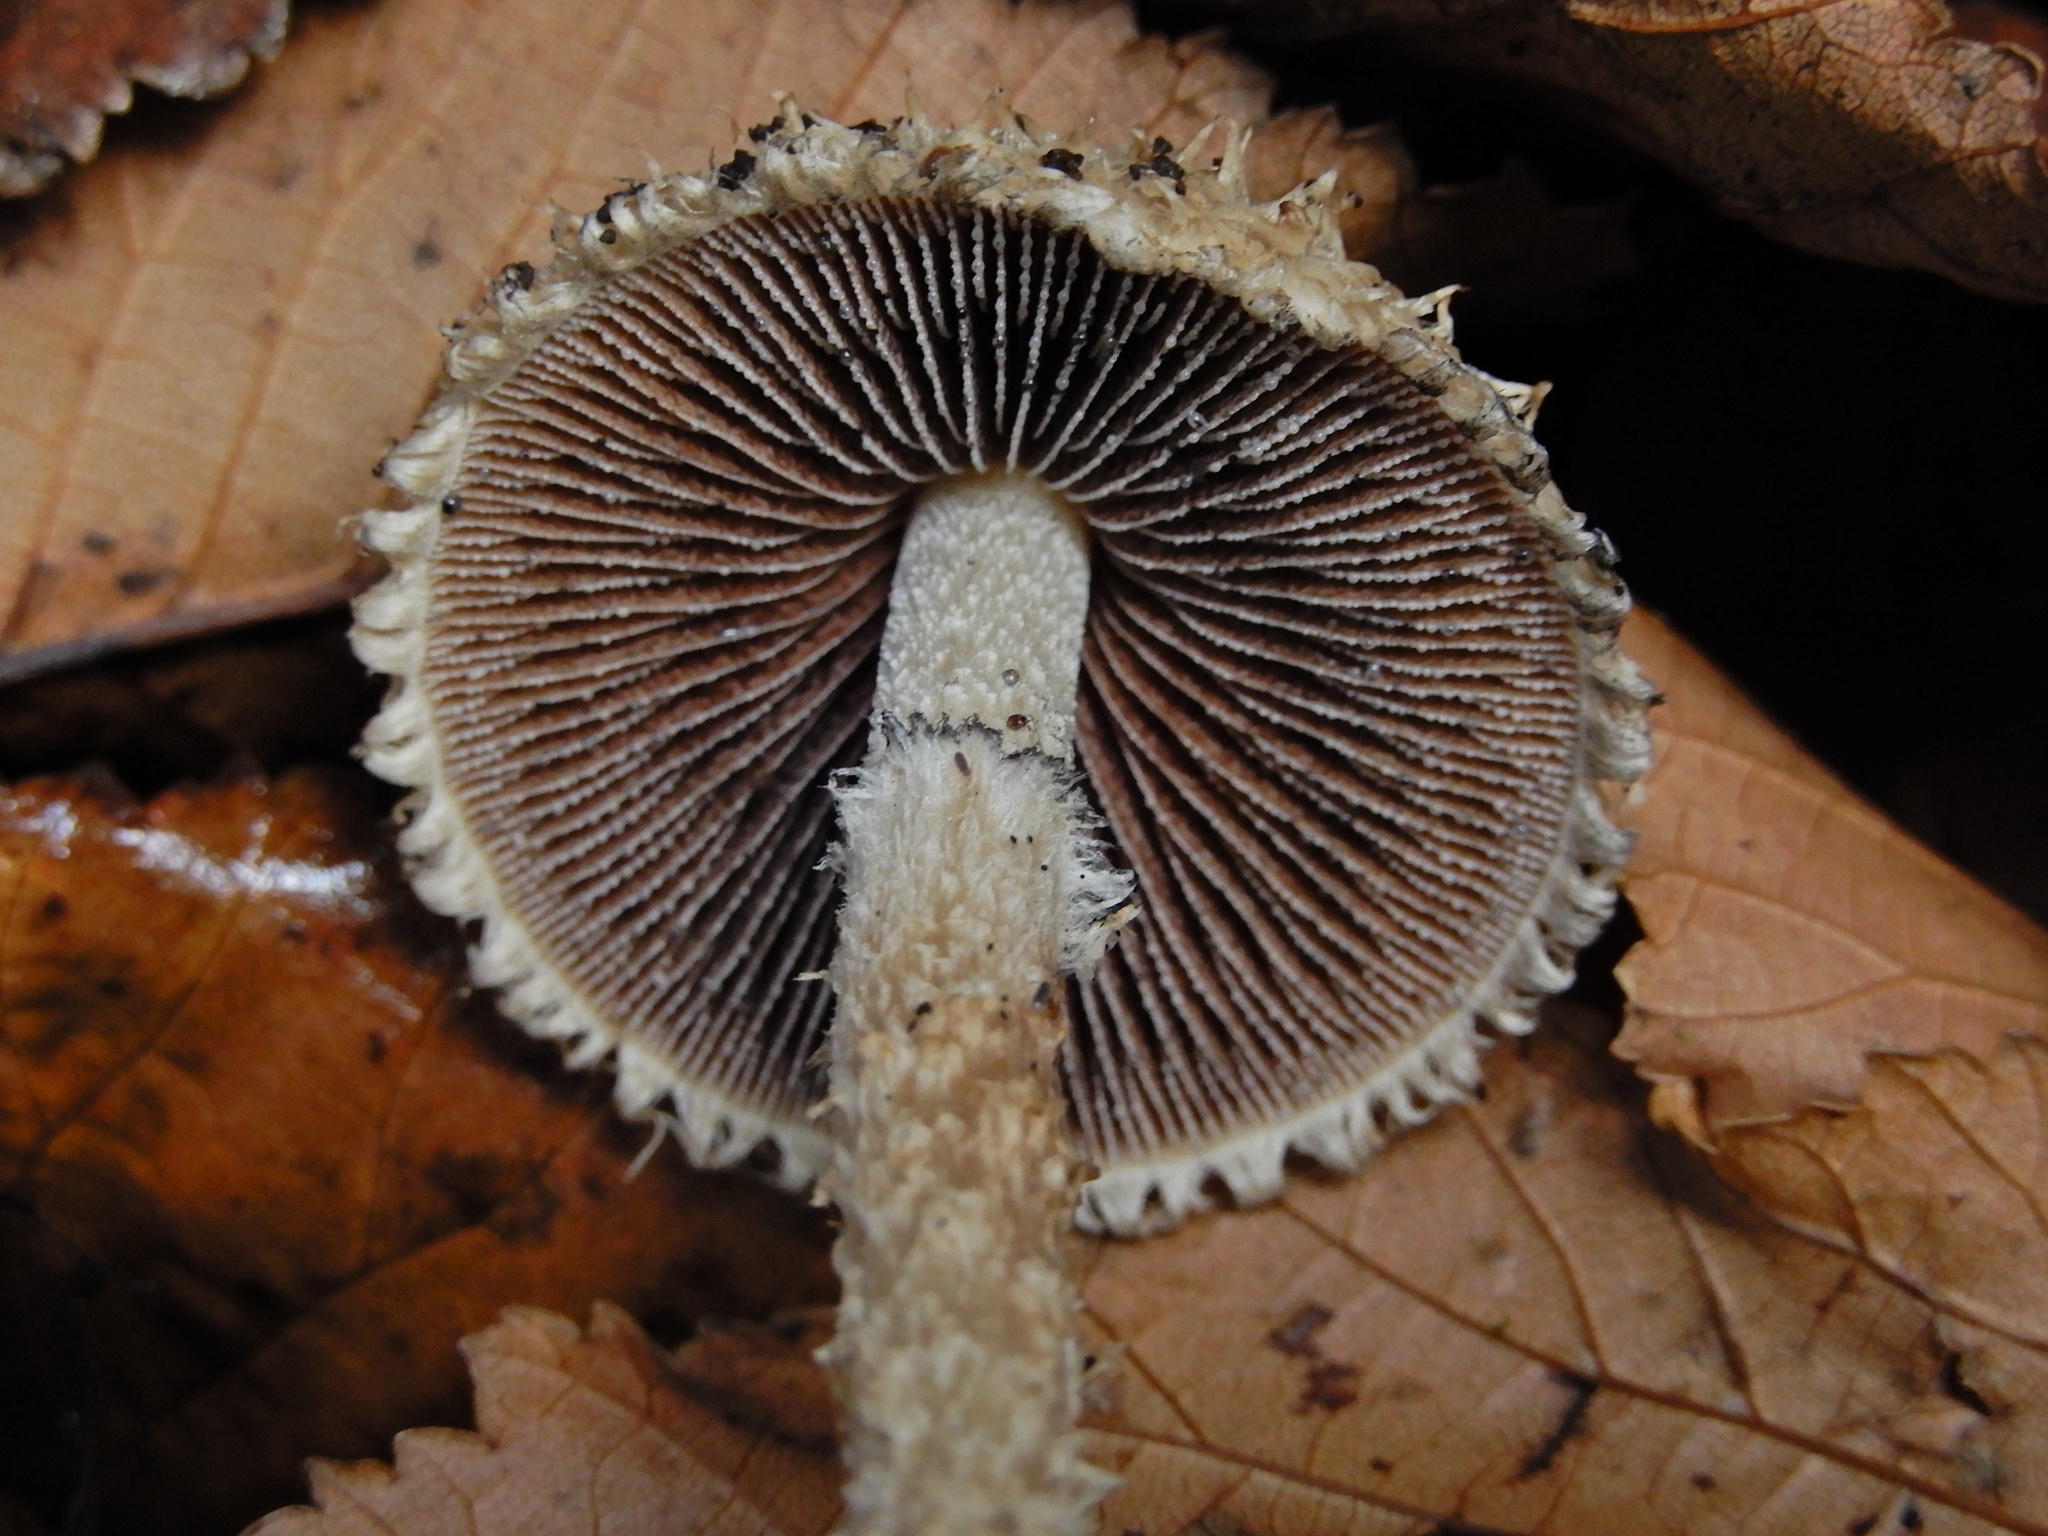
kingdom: Fungi
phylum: Basidiomycota
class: Agaricomycetes
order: Agaricales
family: Psathyrellaceae
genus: Psathyrella
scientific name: Psathyrella asperospora
